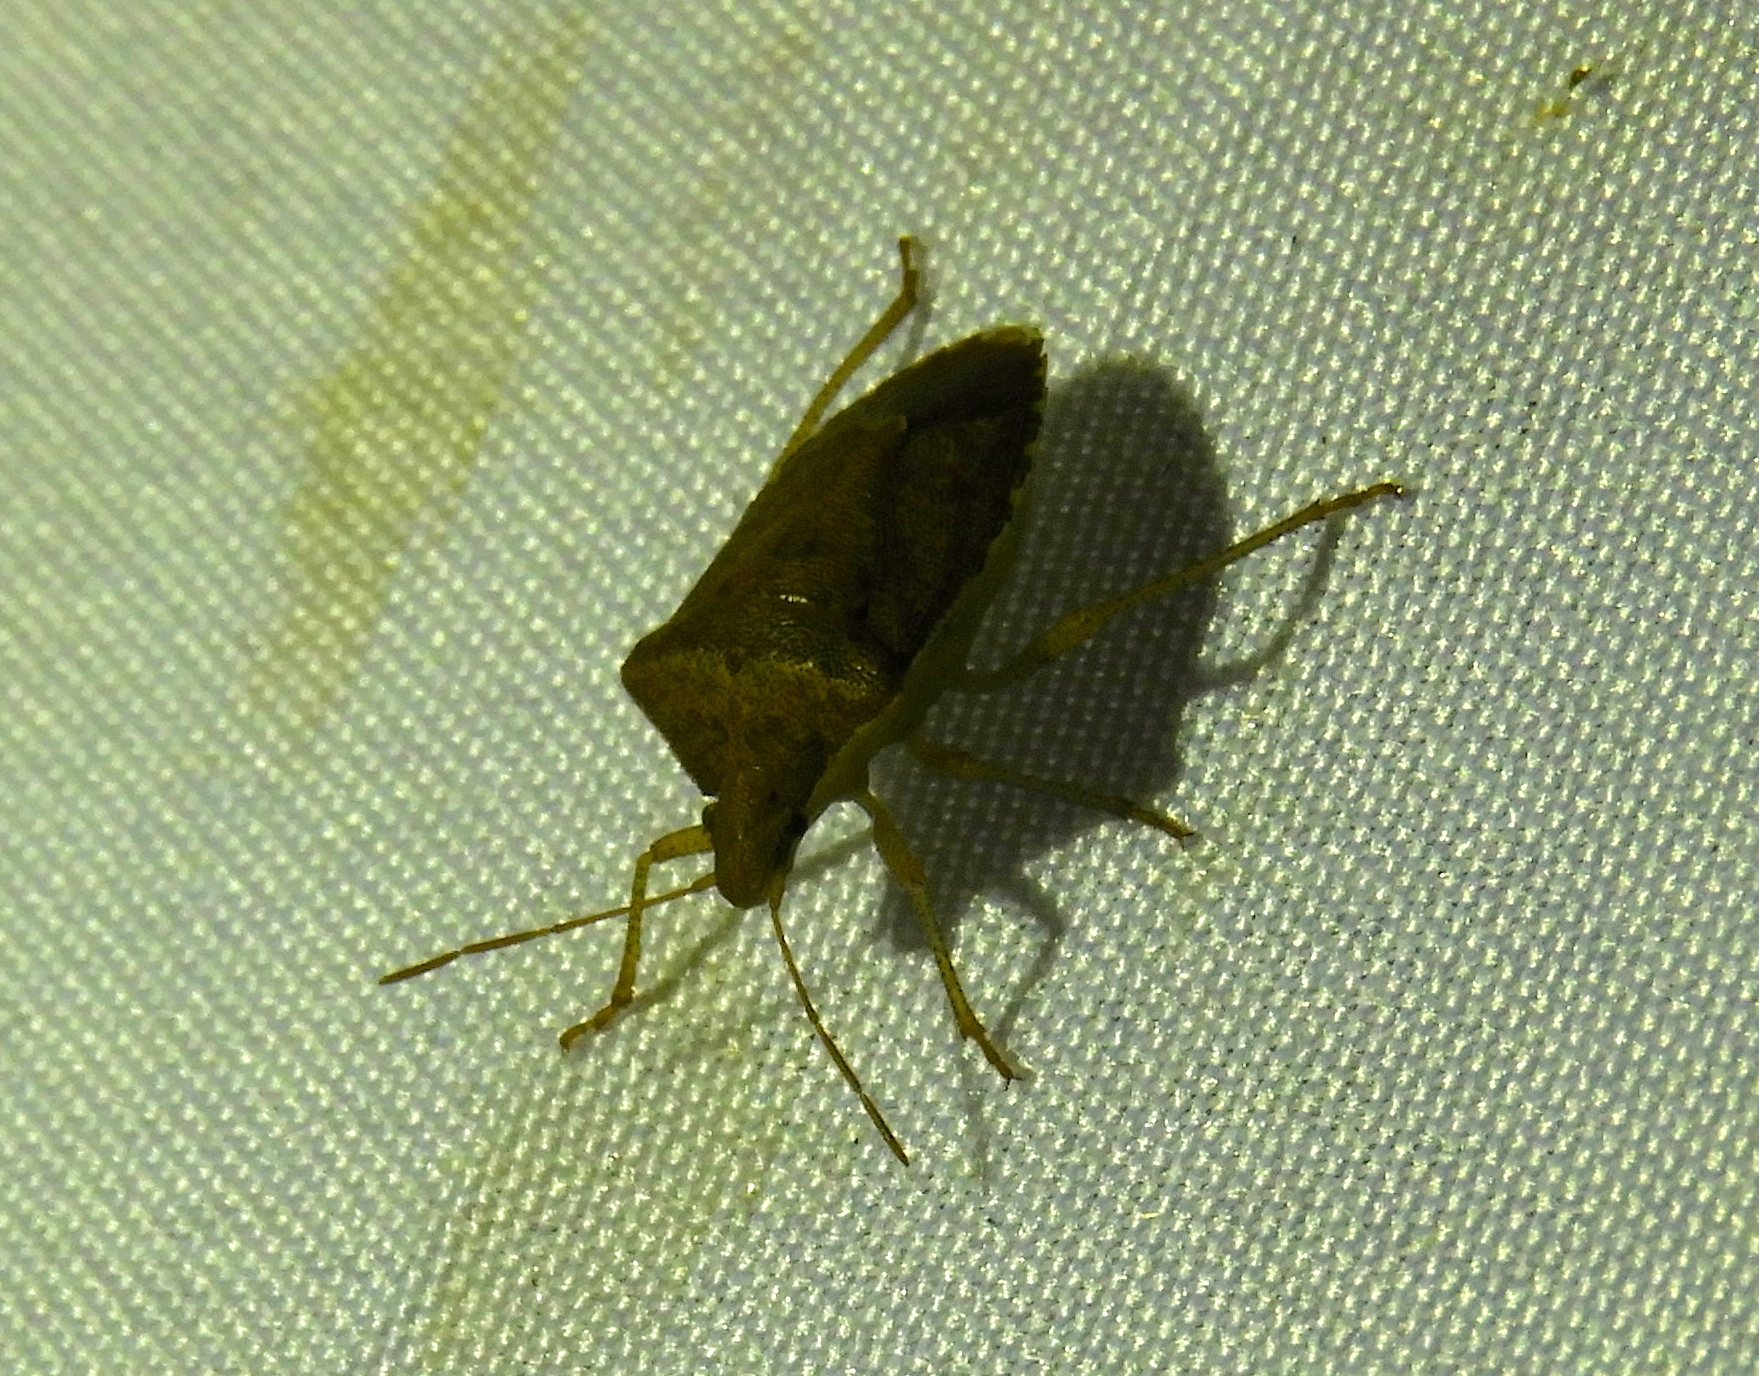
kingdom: Animalia
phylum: Arthropoda
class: Insecta
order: Hemiptera
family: Pentatomidae
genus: Euschistus
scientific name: Euschistus
